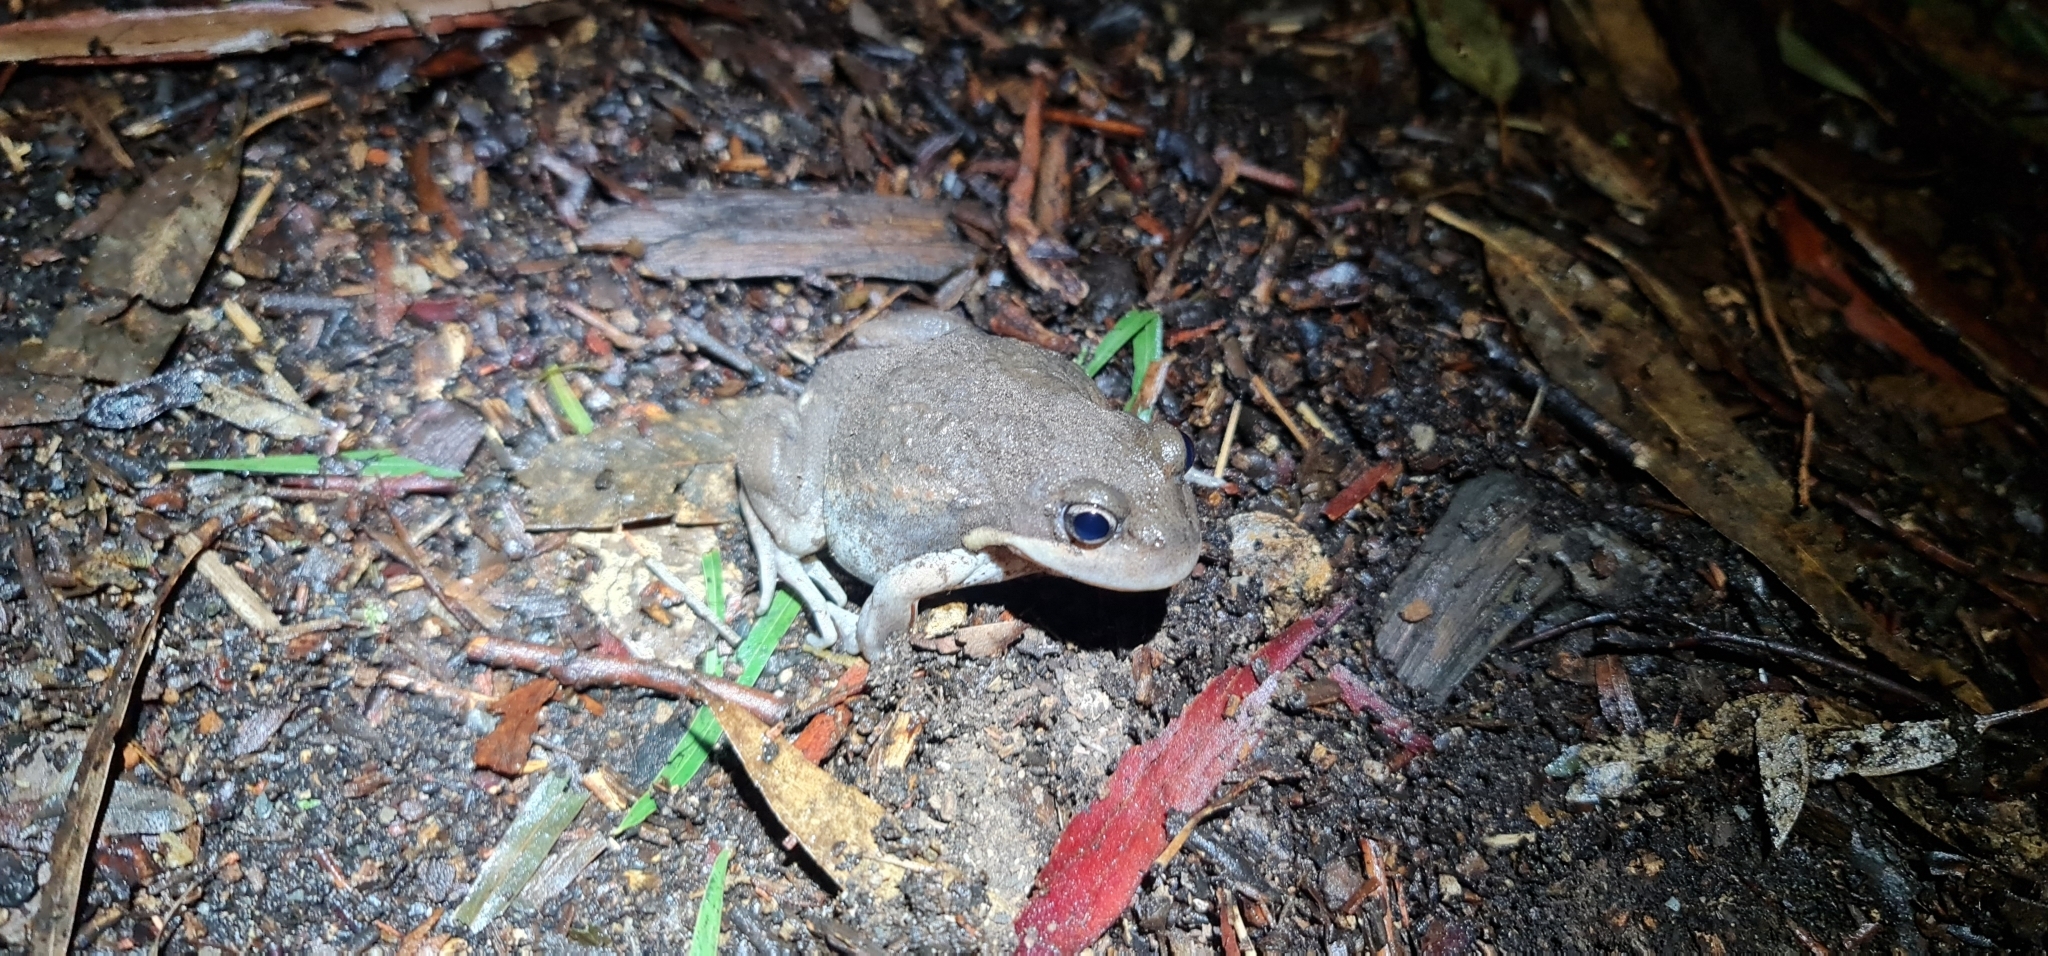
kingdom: Animalia
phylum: Chordata
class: Amphibia
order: Anura
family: Limnodynastidae
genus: Limnodynastes
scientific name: Limnodynastes dumerilii
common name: Banjo frog
